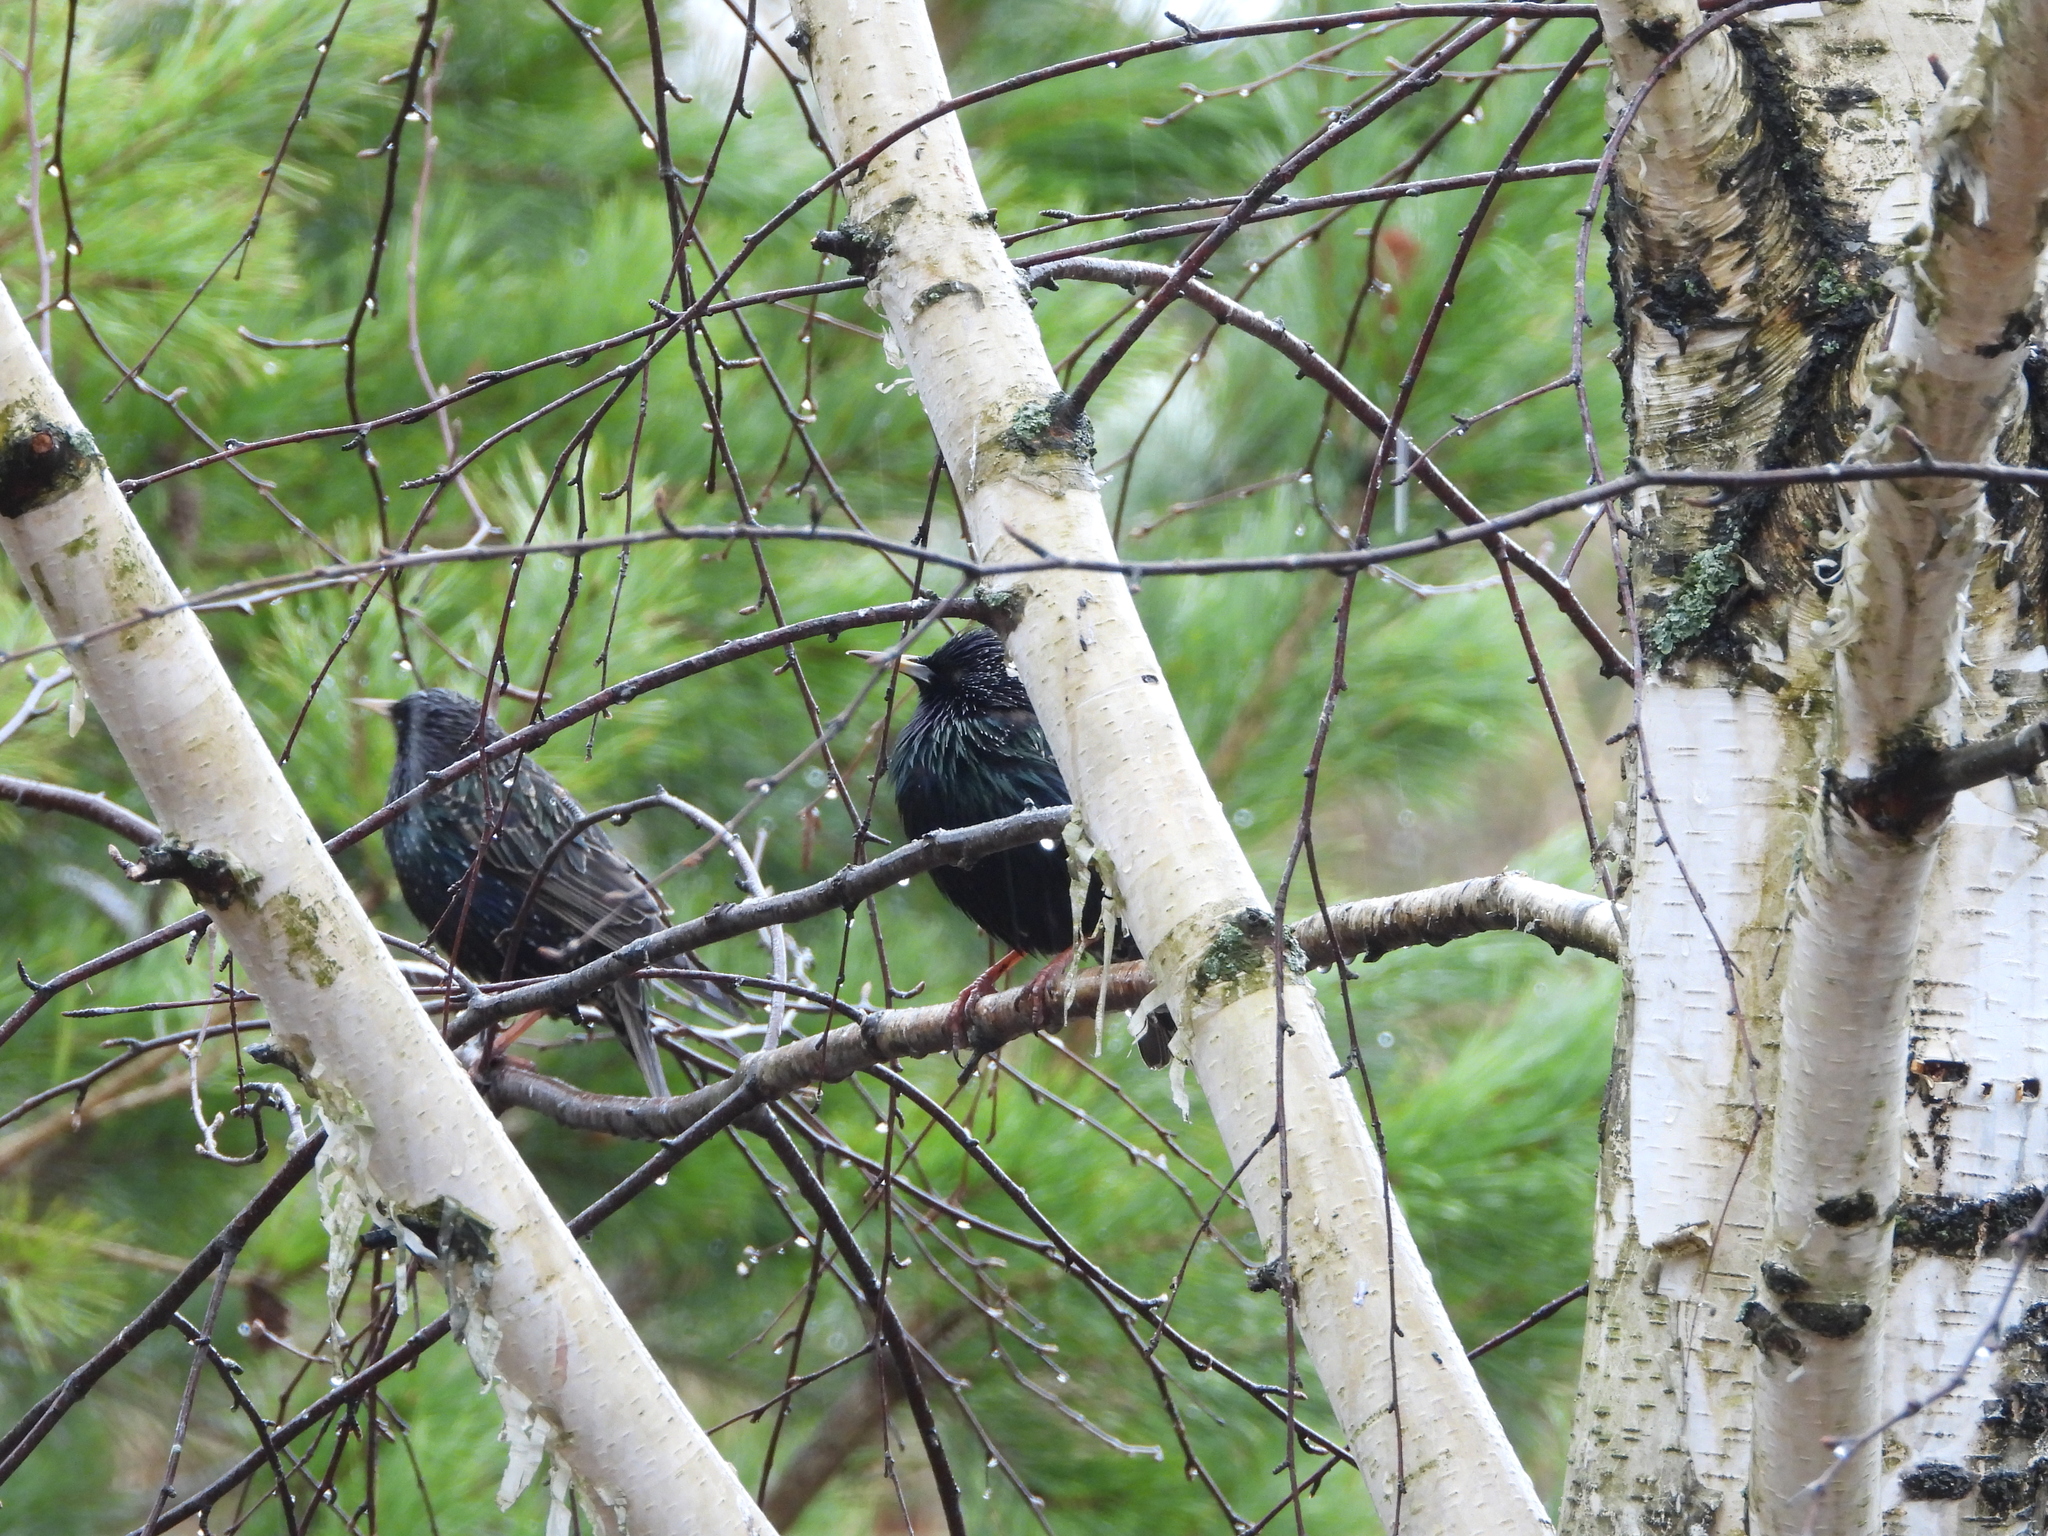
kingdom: Animalia
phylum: Chordata
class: Aves
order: Passeriformes
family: Sturnidae
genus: Sturnus
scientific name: Sturnus vulgaris
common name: Common starling
